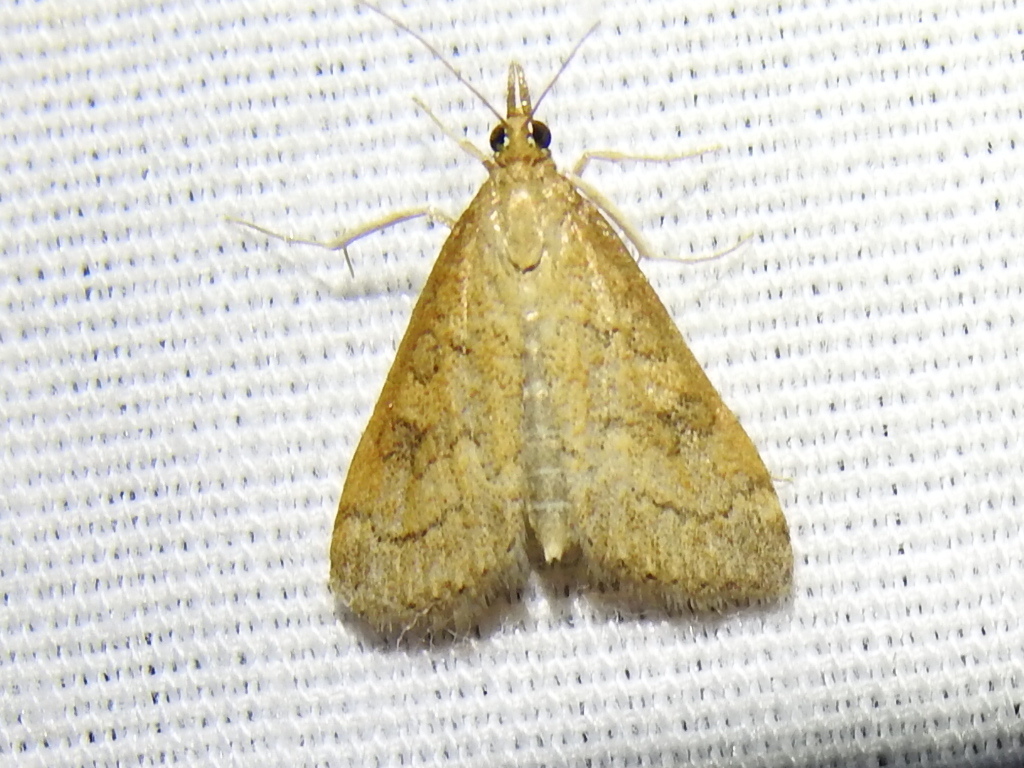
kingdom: Animalia
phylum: Arthropoda
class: Insecta
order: Lepidoptera
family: Crambidae
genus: Udea
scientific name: Udea rubigalis
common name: Celery leaftier moth
